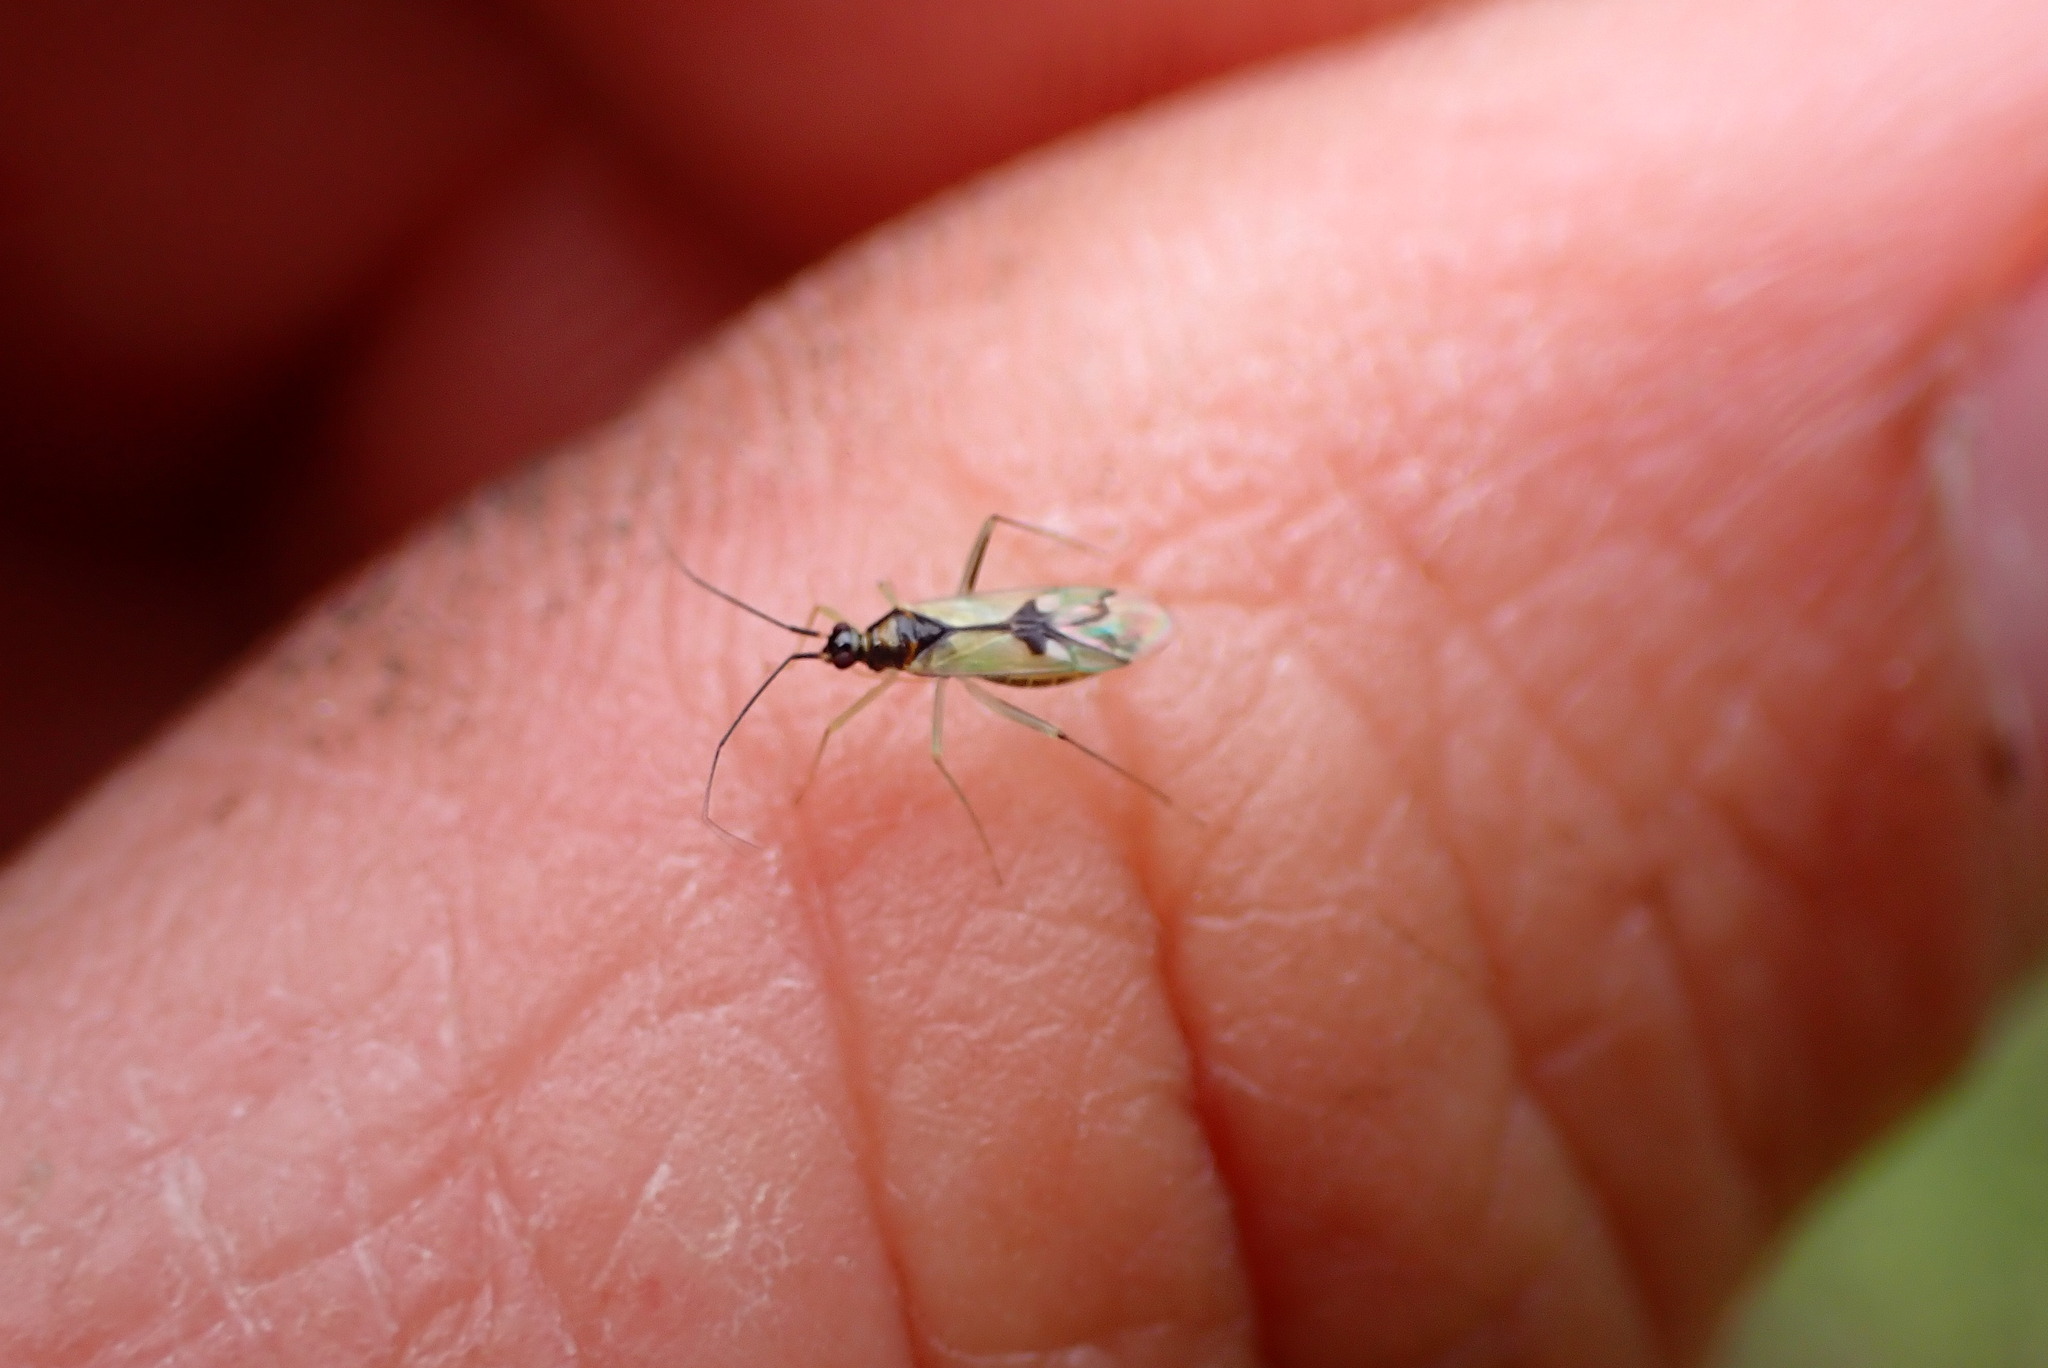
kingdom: Animalia
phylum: Arthropoda
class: Insecta
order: Hemiptera
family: Miridae
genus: Paraproba
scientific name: Paraproba pendula
